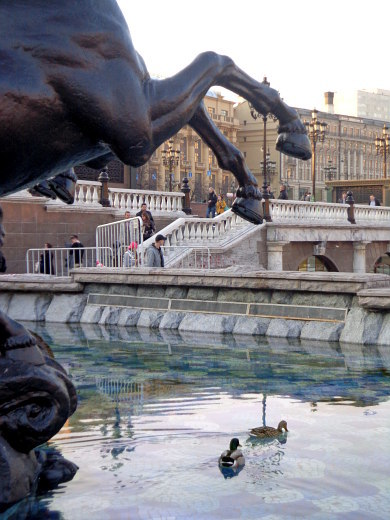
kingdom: Animalia
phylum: Chordata
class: Aves
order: Anseriformes
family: Anatidae
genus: Anas
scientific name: Anas platyrhynchos
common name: Mallard
